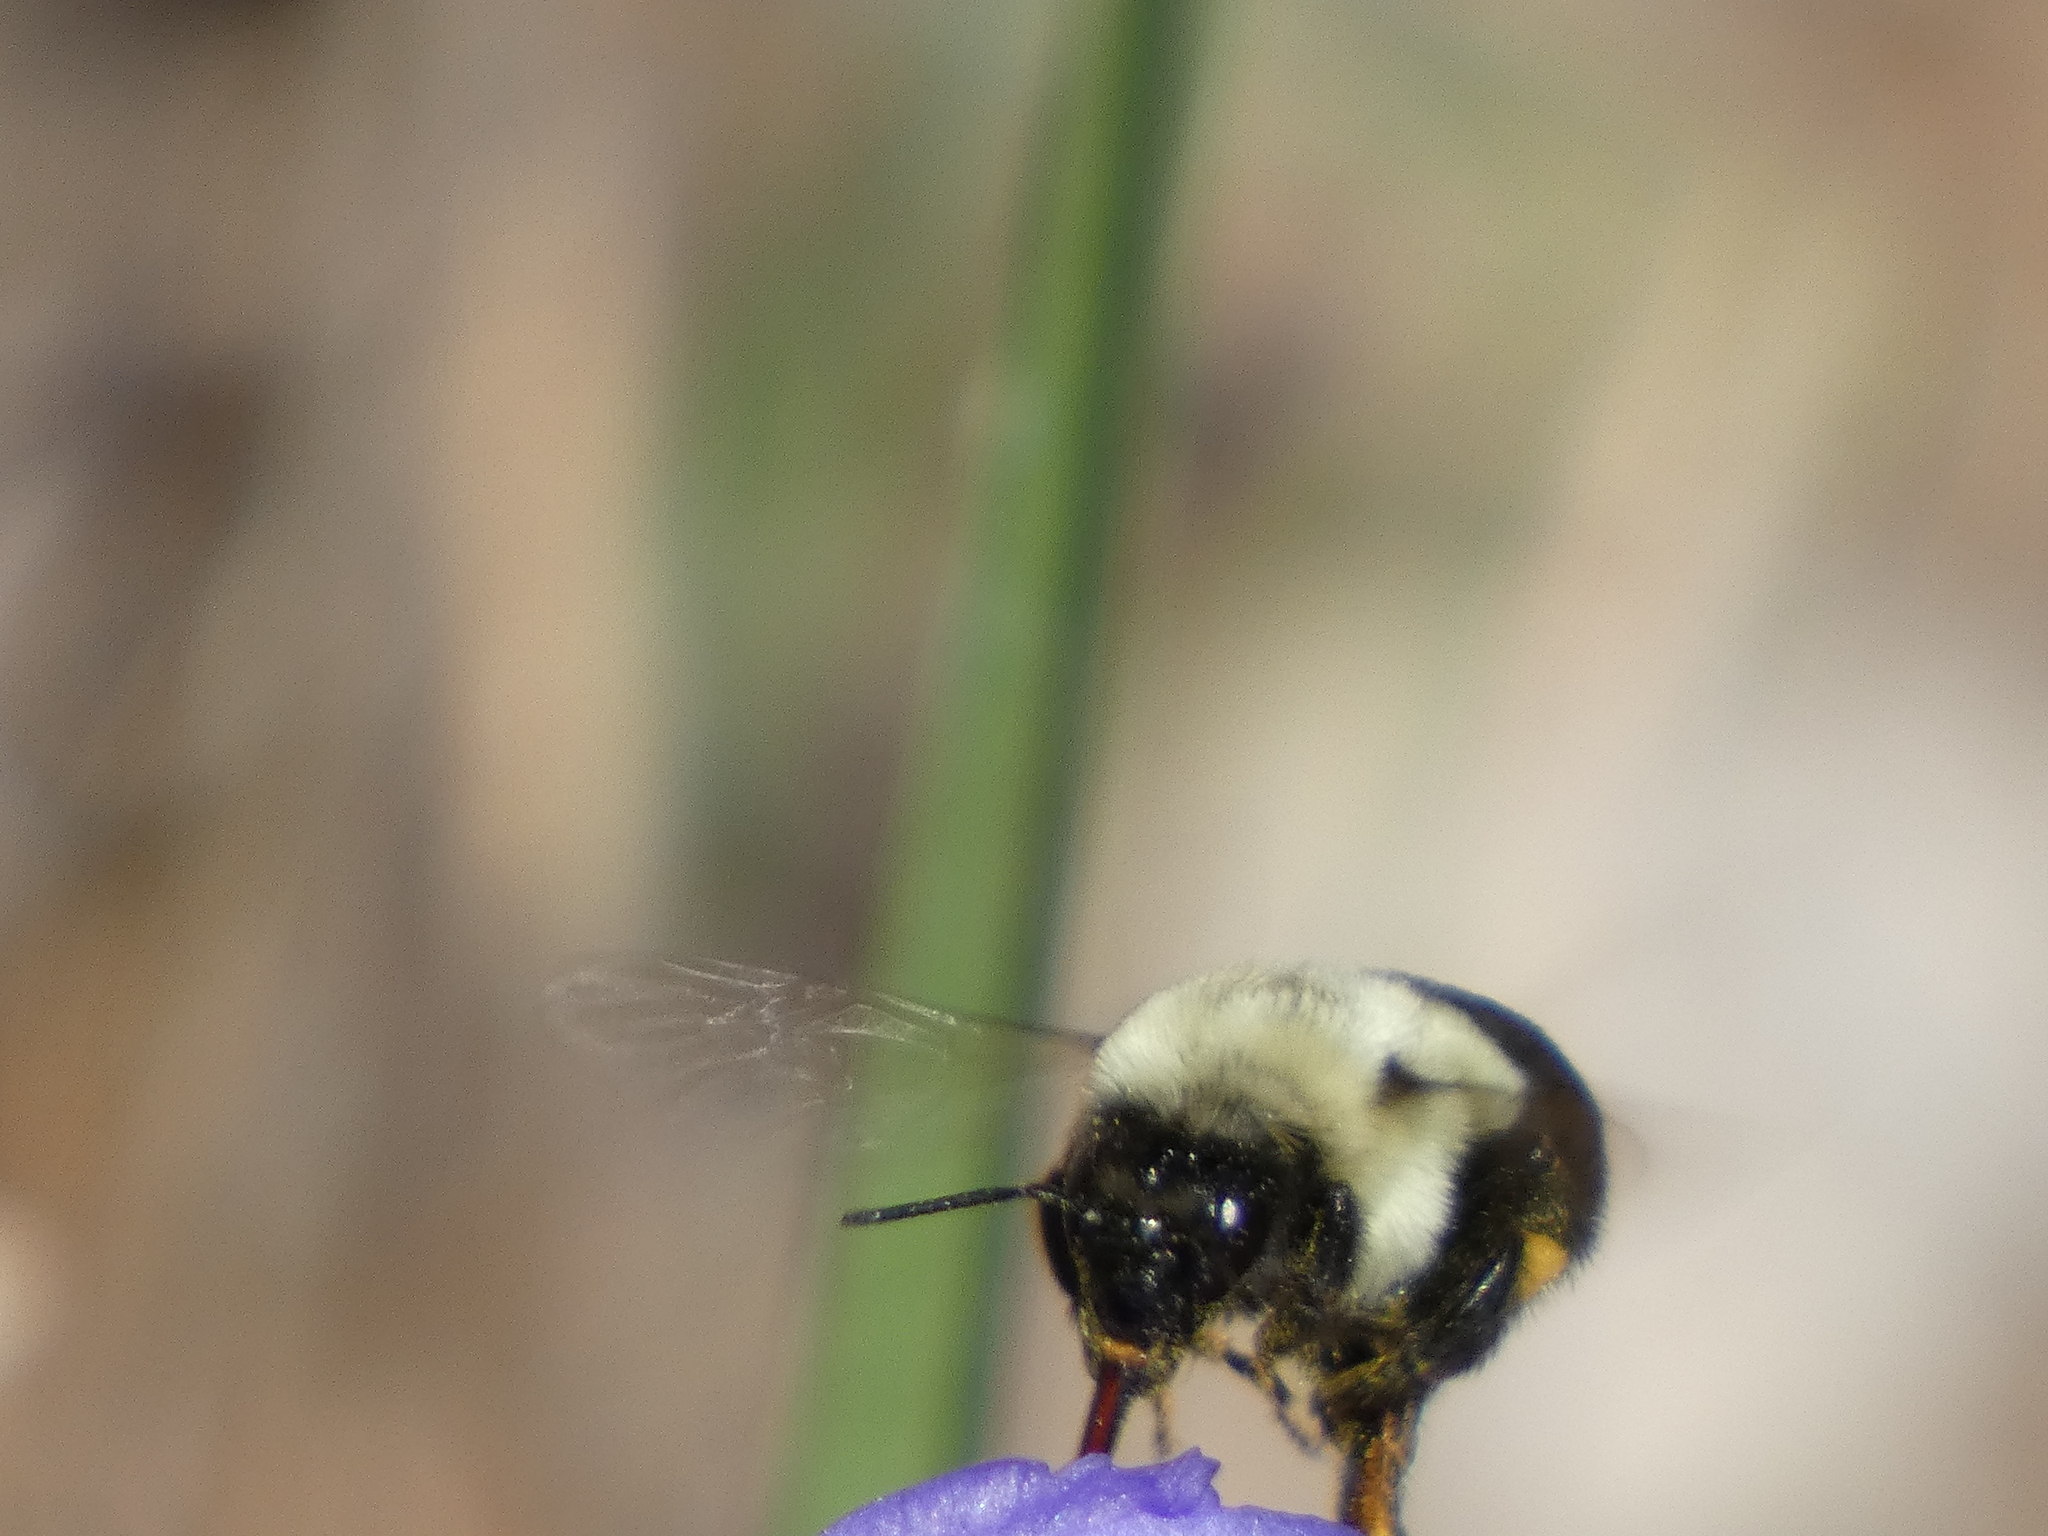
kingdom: Animalia
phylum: Arthropoda
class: Insecta
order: Hymenoptera
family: Apidae
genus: Bombus
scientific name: Bombus impatiens
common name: Common eastern bumble bee
